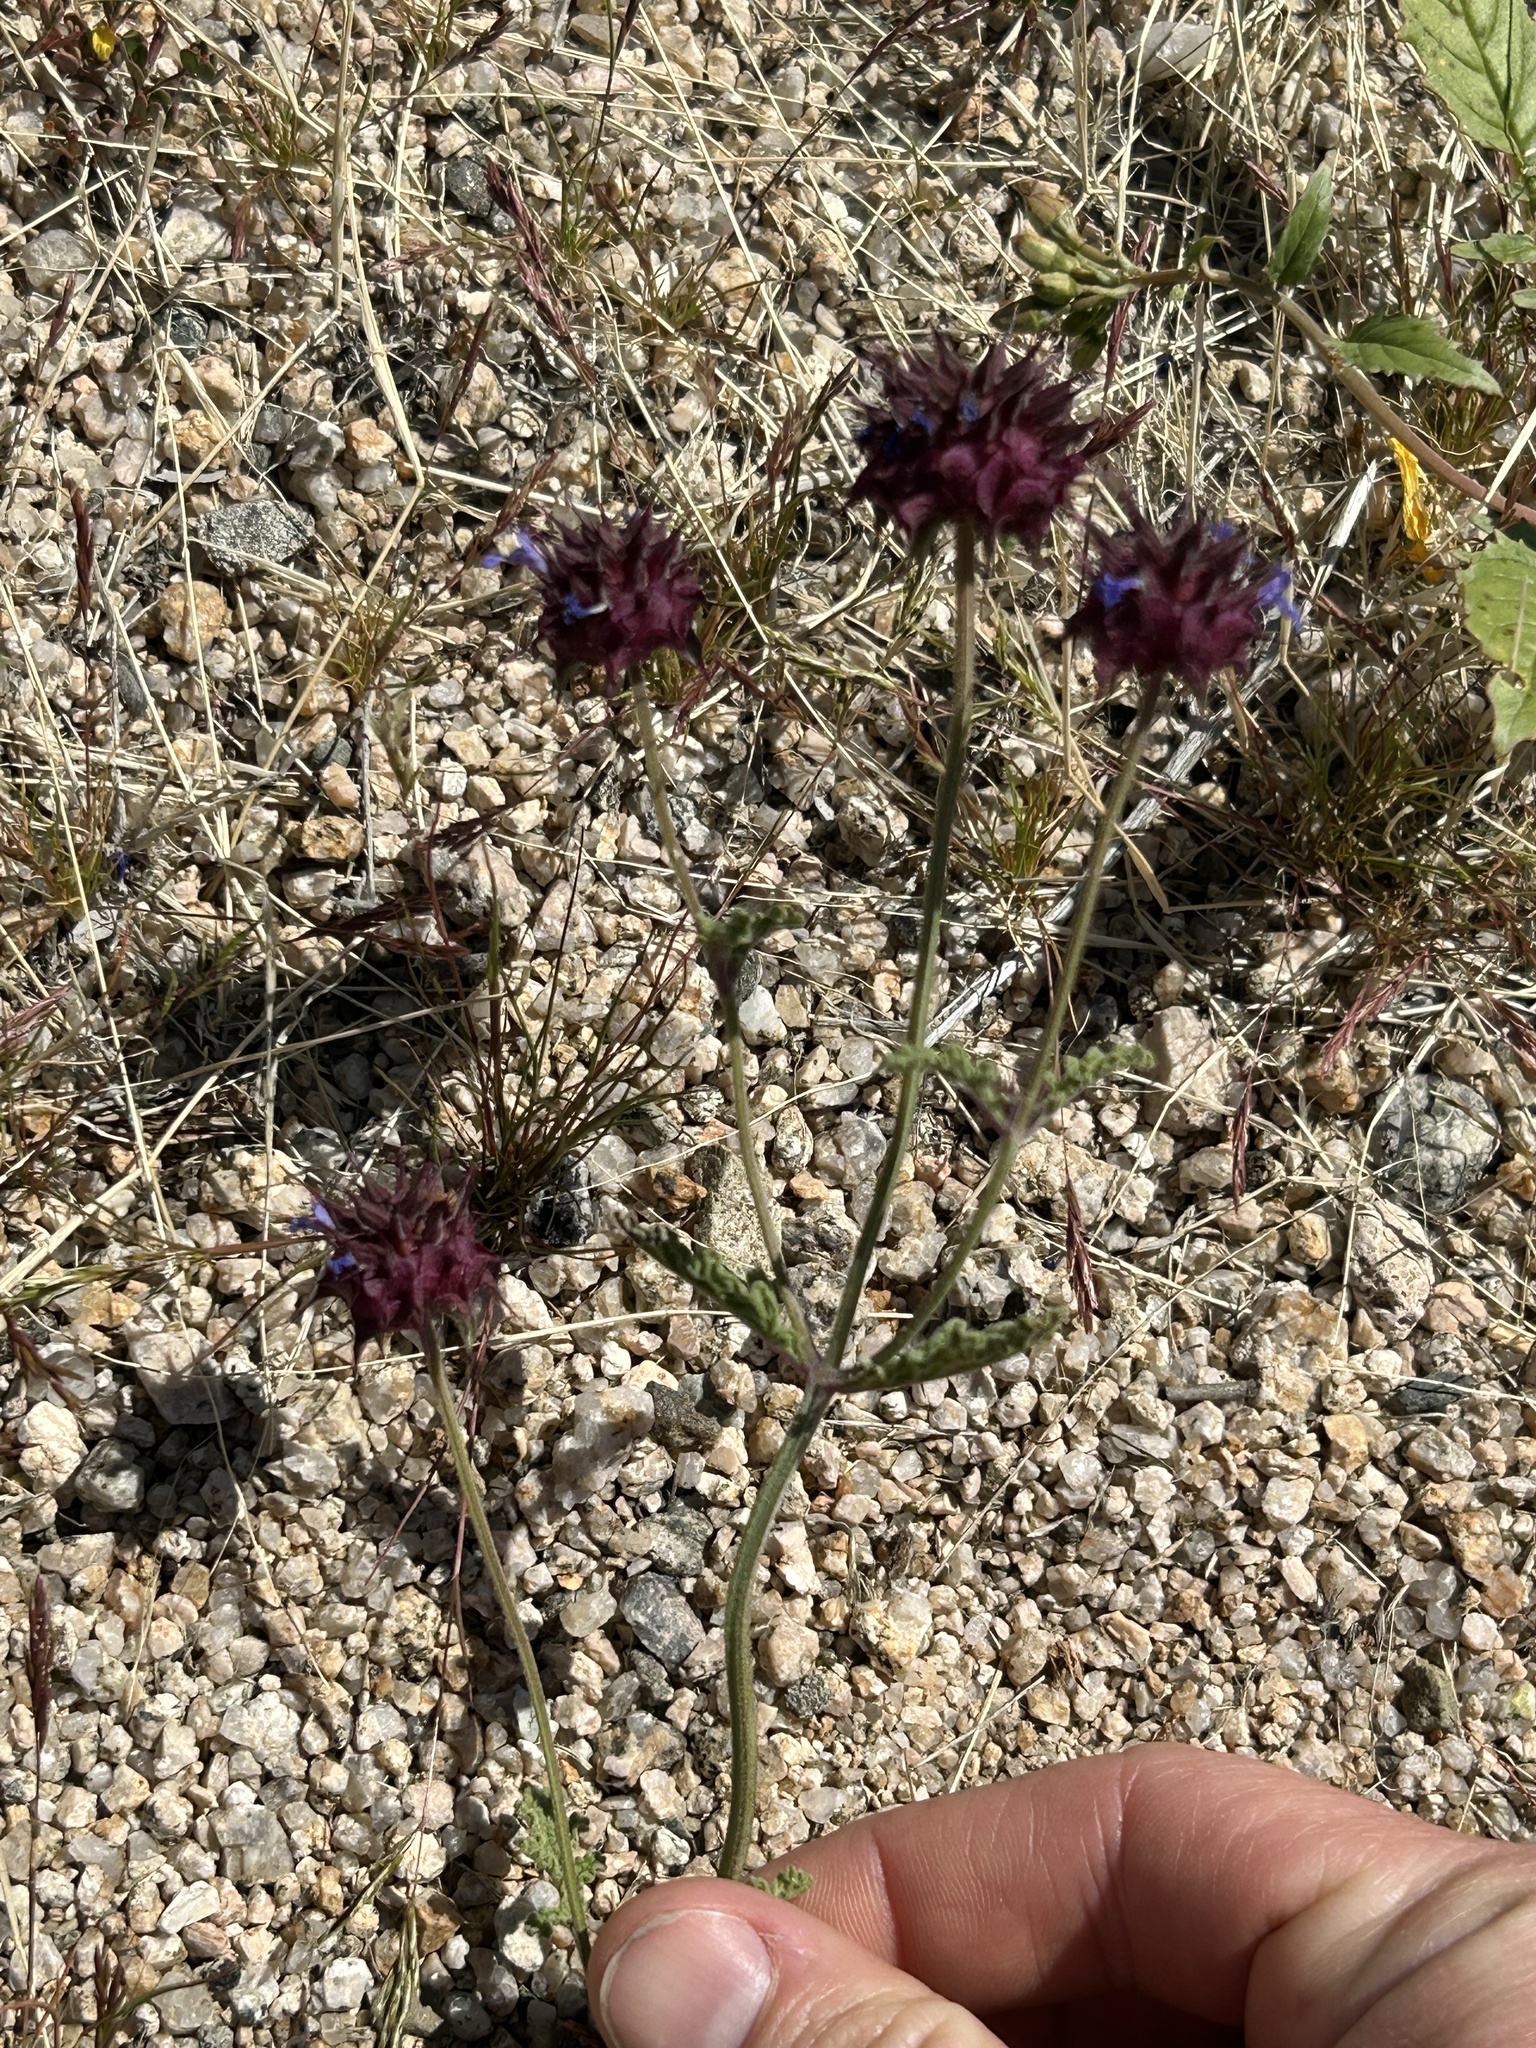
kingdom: Plantae
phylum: Tracheophyta
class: Magnoliopsida
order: Lamiales
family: Lamiaceae
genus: Salvia
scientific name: Salvia columbariae
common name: Chia
